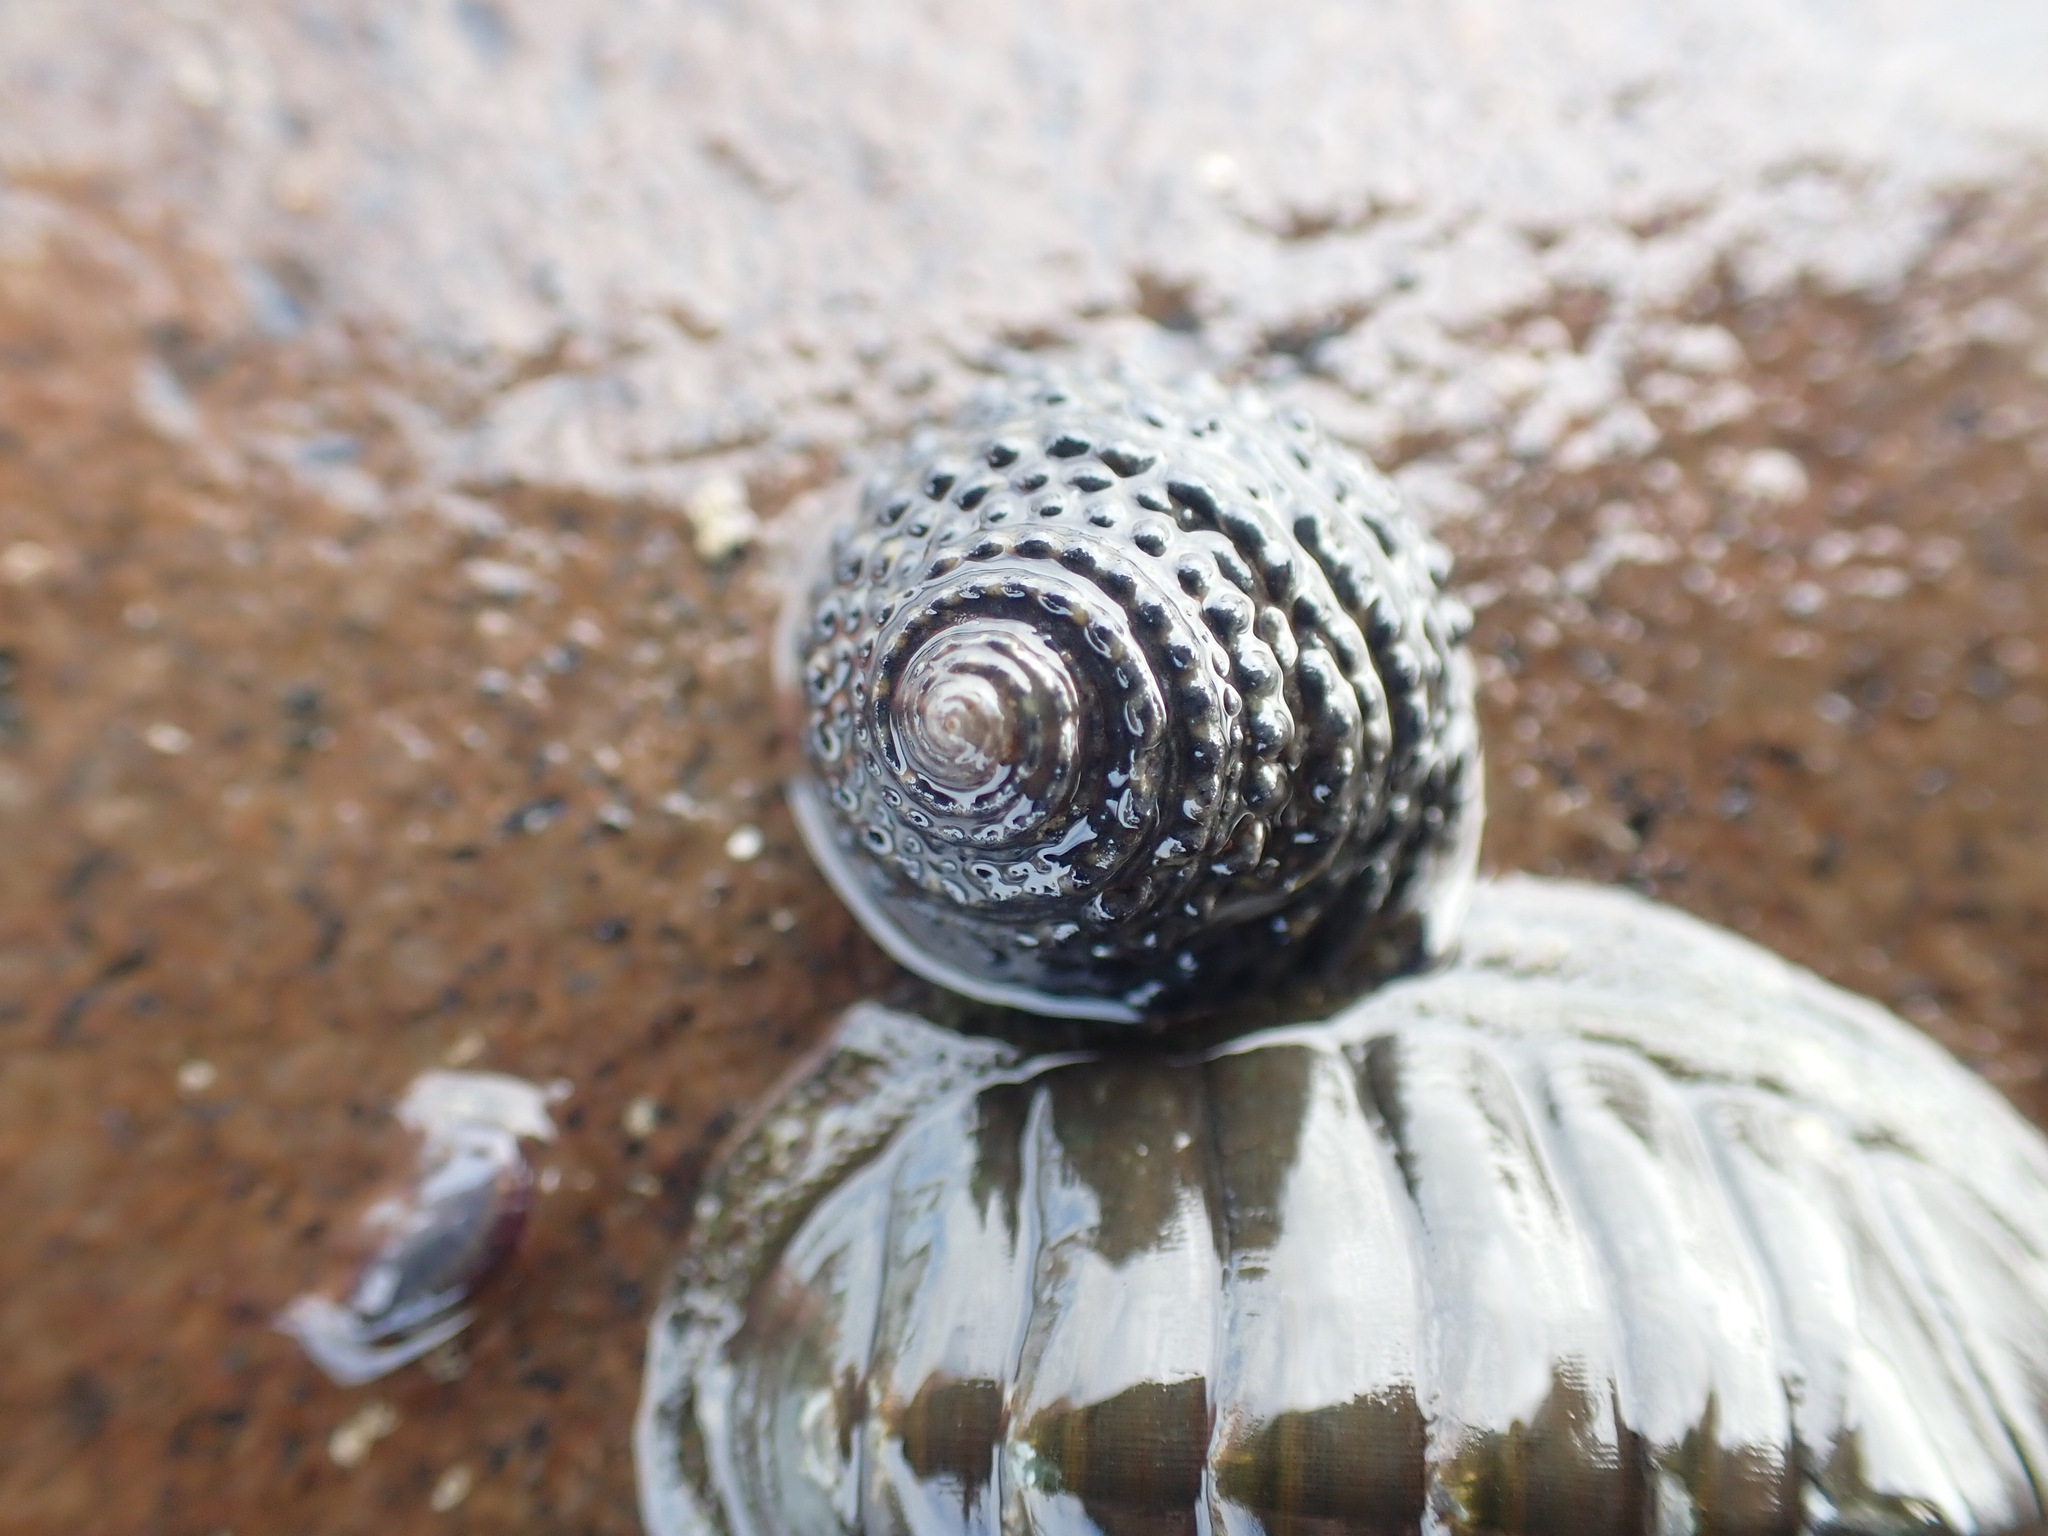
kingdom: Animalia
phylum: Mollusca
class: Gastropoda
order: Trochida
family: Trochidae
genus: Diloma
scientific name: Diloma bicanaliculatum
